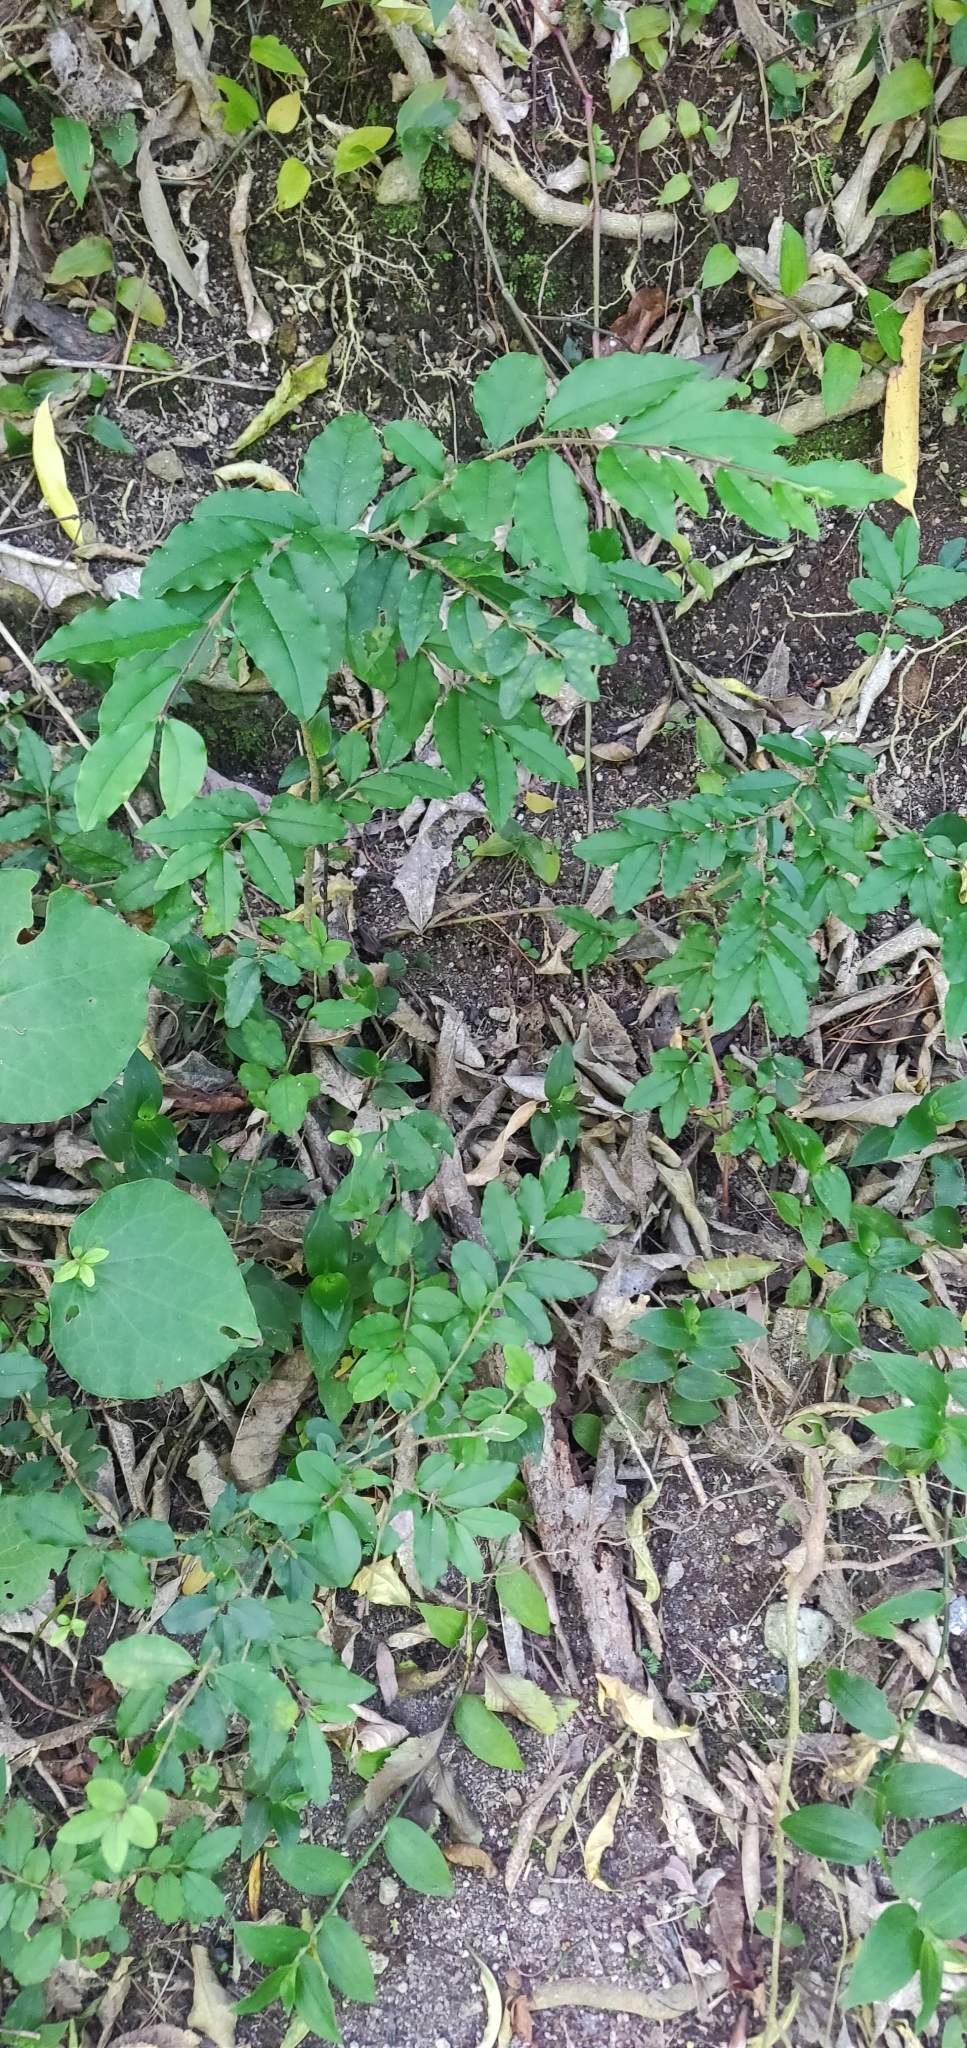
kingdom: Plantae
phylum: Tracheophyta
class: Magnoliopsida
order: Lamiales
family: Oleaceae
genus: Ligustrum
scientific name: Ligustrum sinense
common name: Chinese privet
